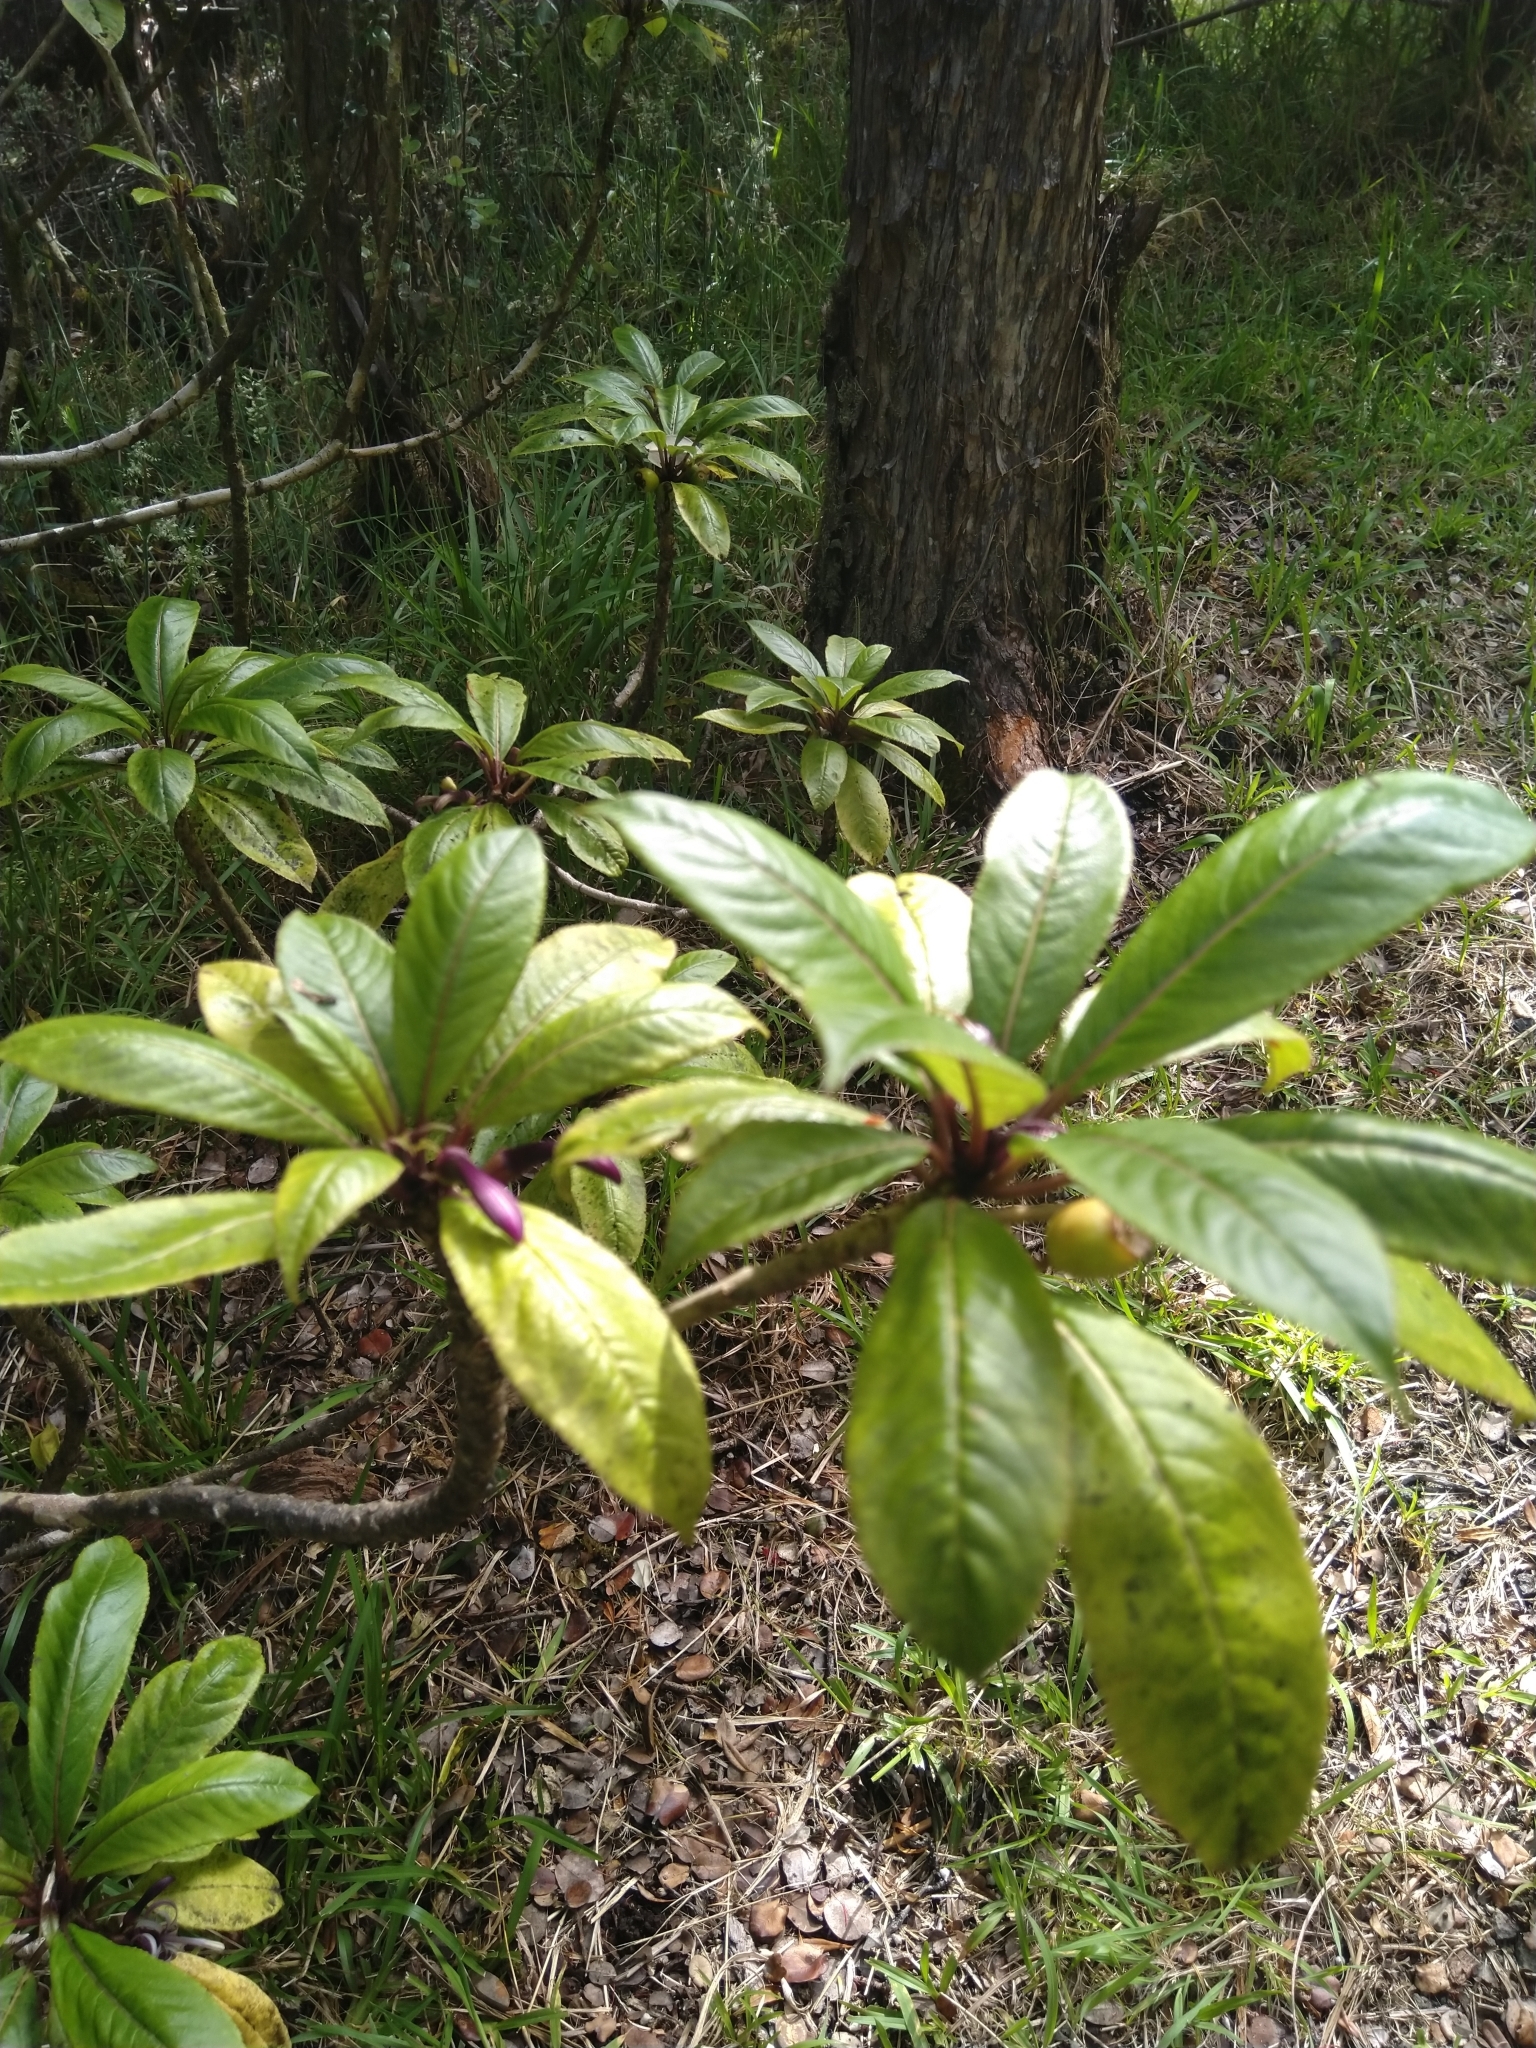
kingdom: Plantae
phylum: Tracheophyta
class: Magnoliopsida
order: Asterales
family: Campanulaceae
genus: Clermontia
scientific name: Clermontia parviflora
